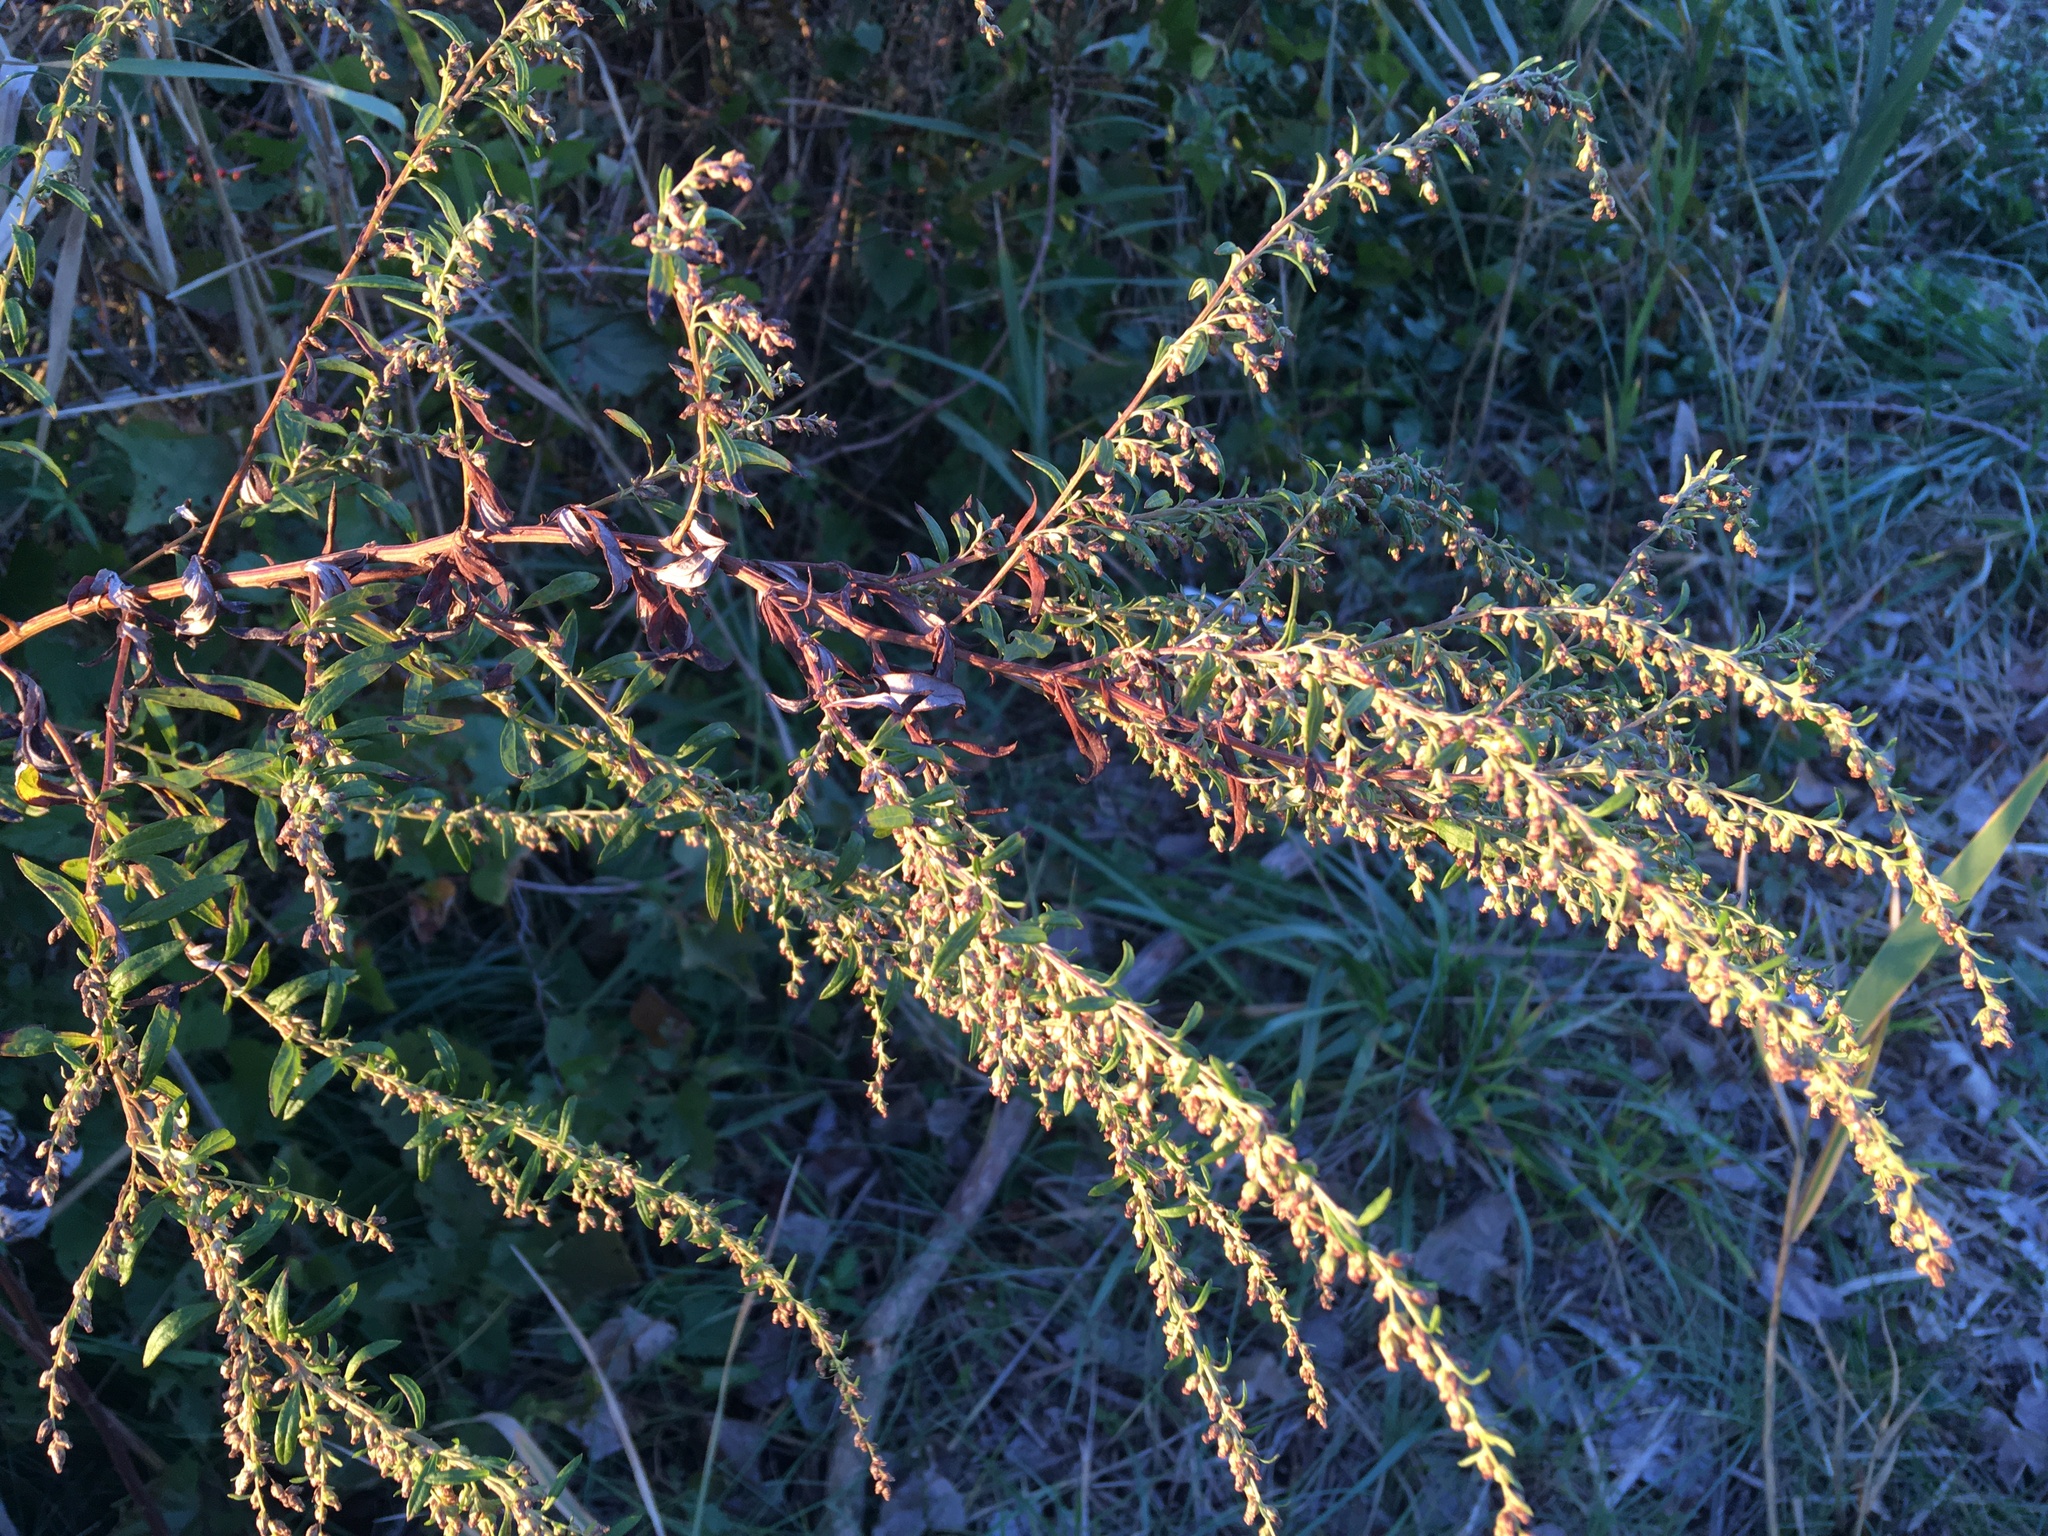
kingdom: Plantae
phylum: Tracheophyta
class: Magnoliopsida
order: Asterales
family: Asteraceae
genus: Artemisia
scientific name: Artemisia vulgaris
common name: Mugwort
